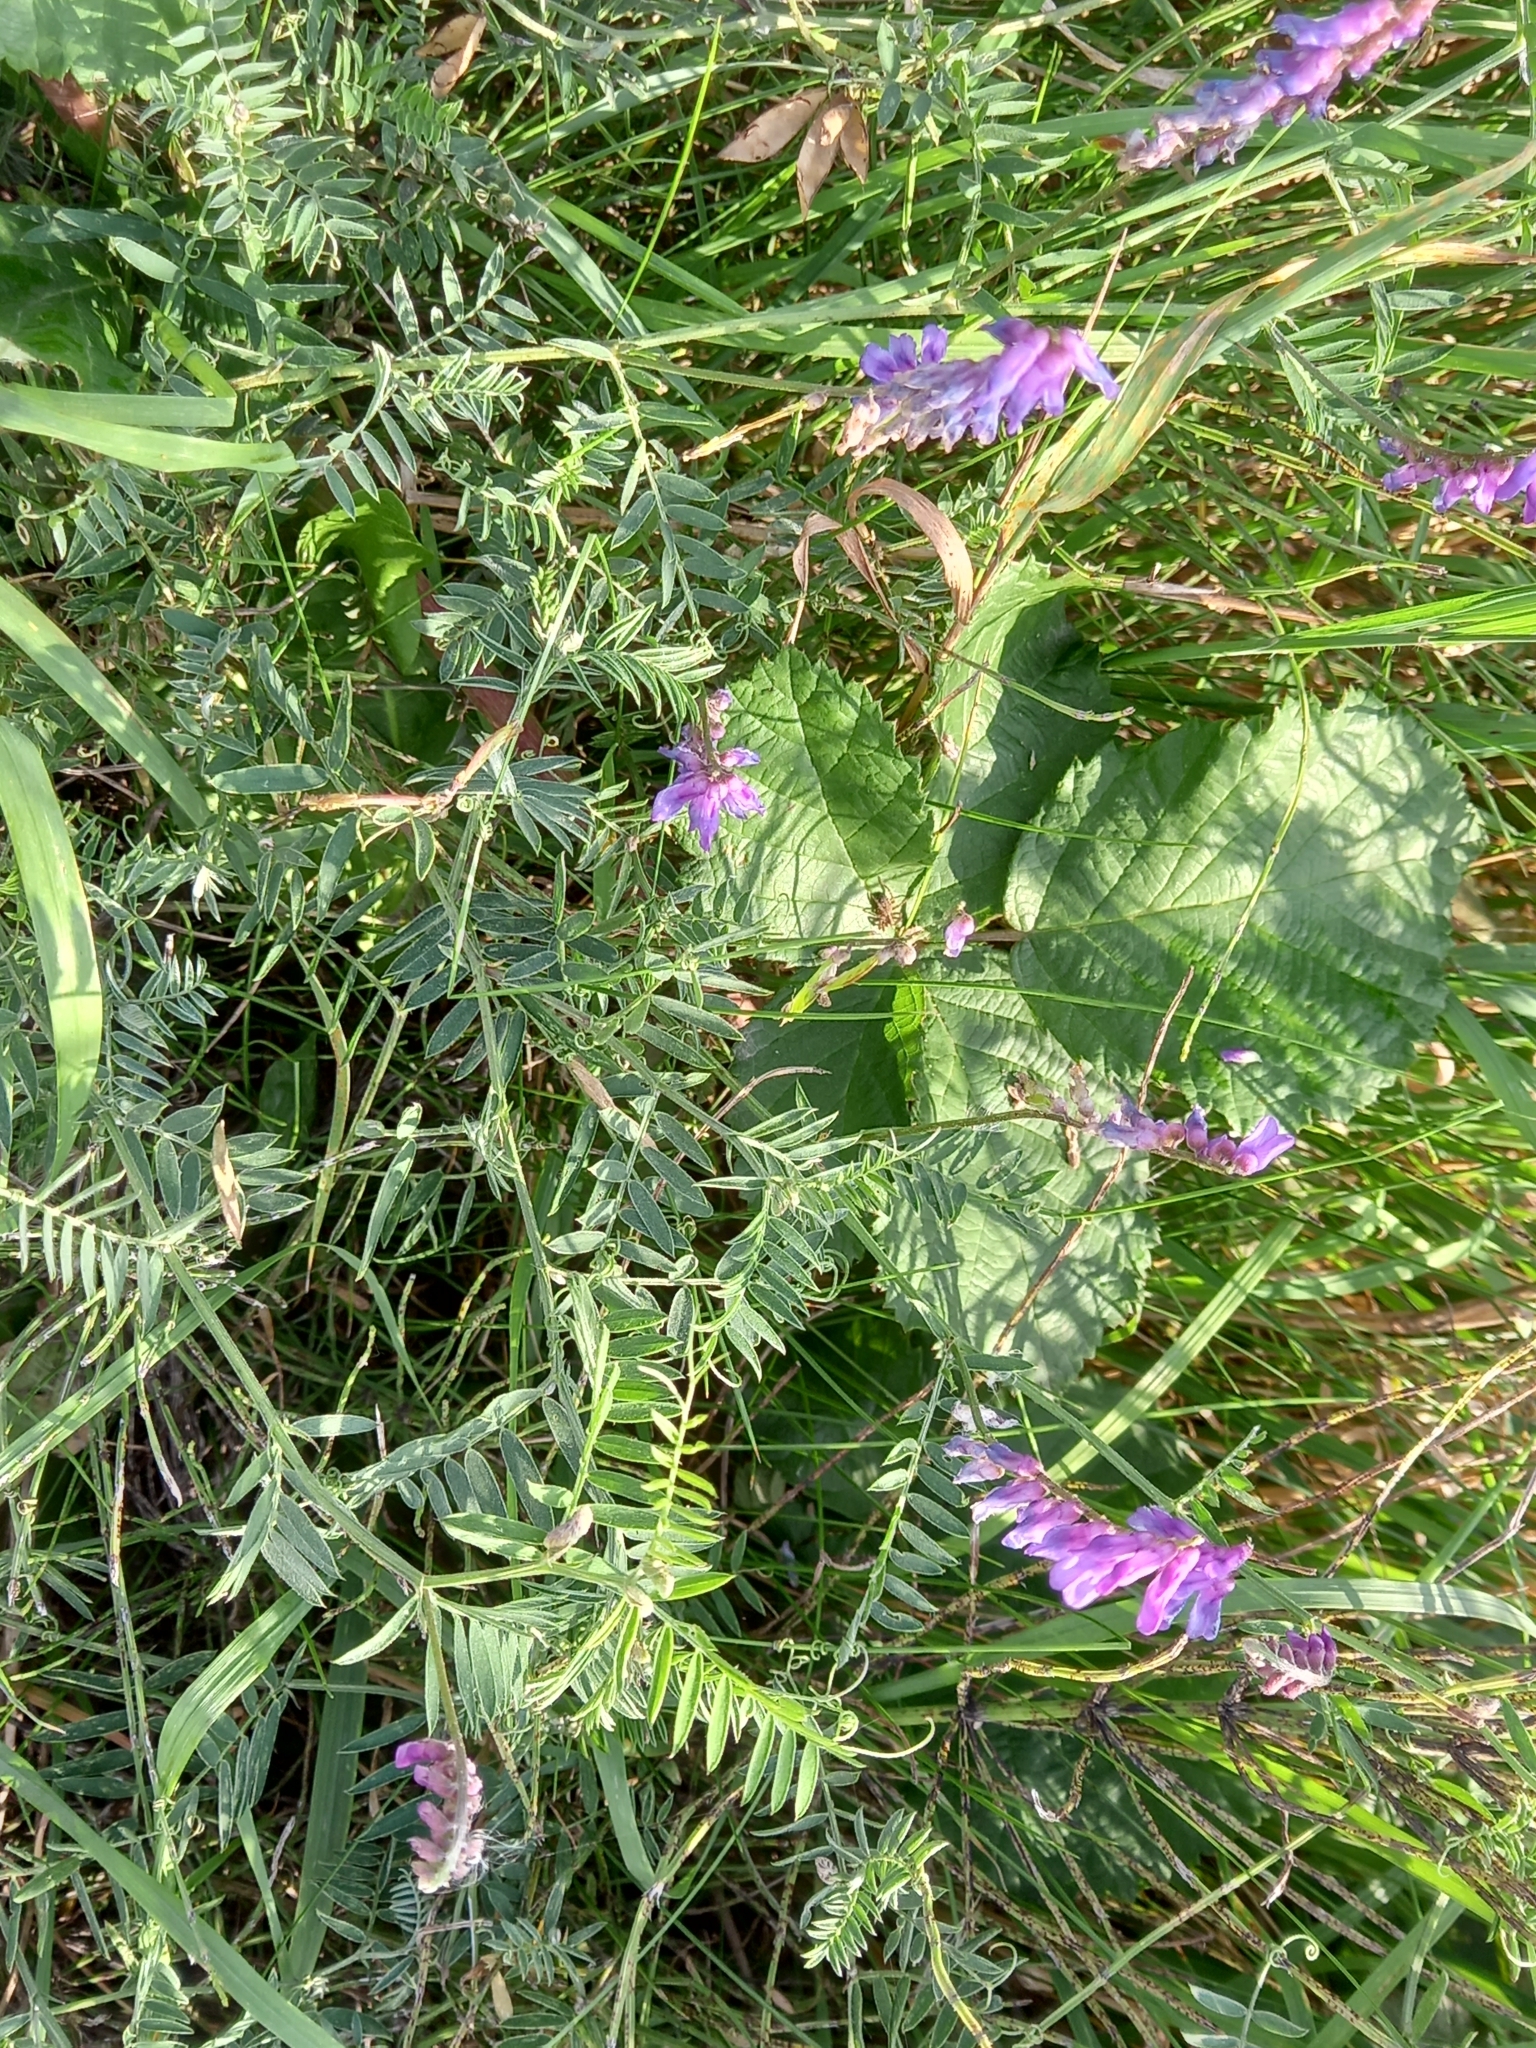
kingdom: Plantae
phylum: Tracheophyta
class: Magnoliopsida
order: Fabales
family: Fabaceae
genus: Vicia
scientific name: Vicia cracca
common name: Bird vetch
